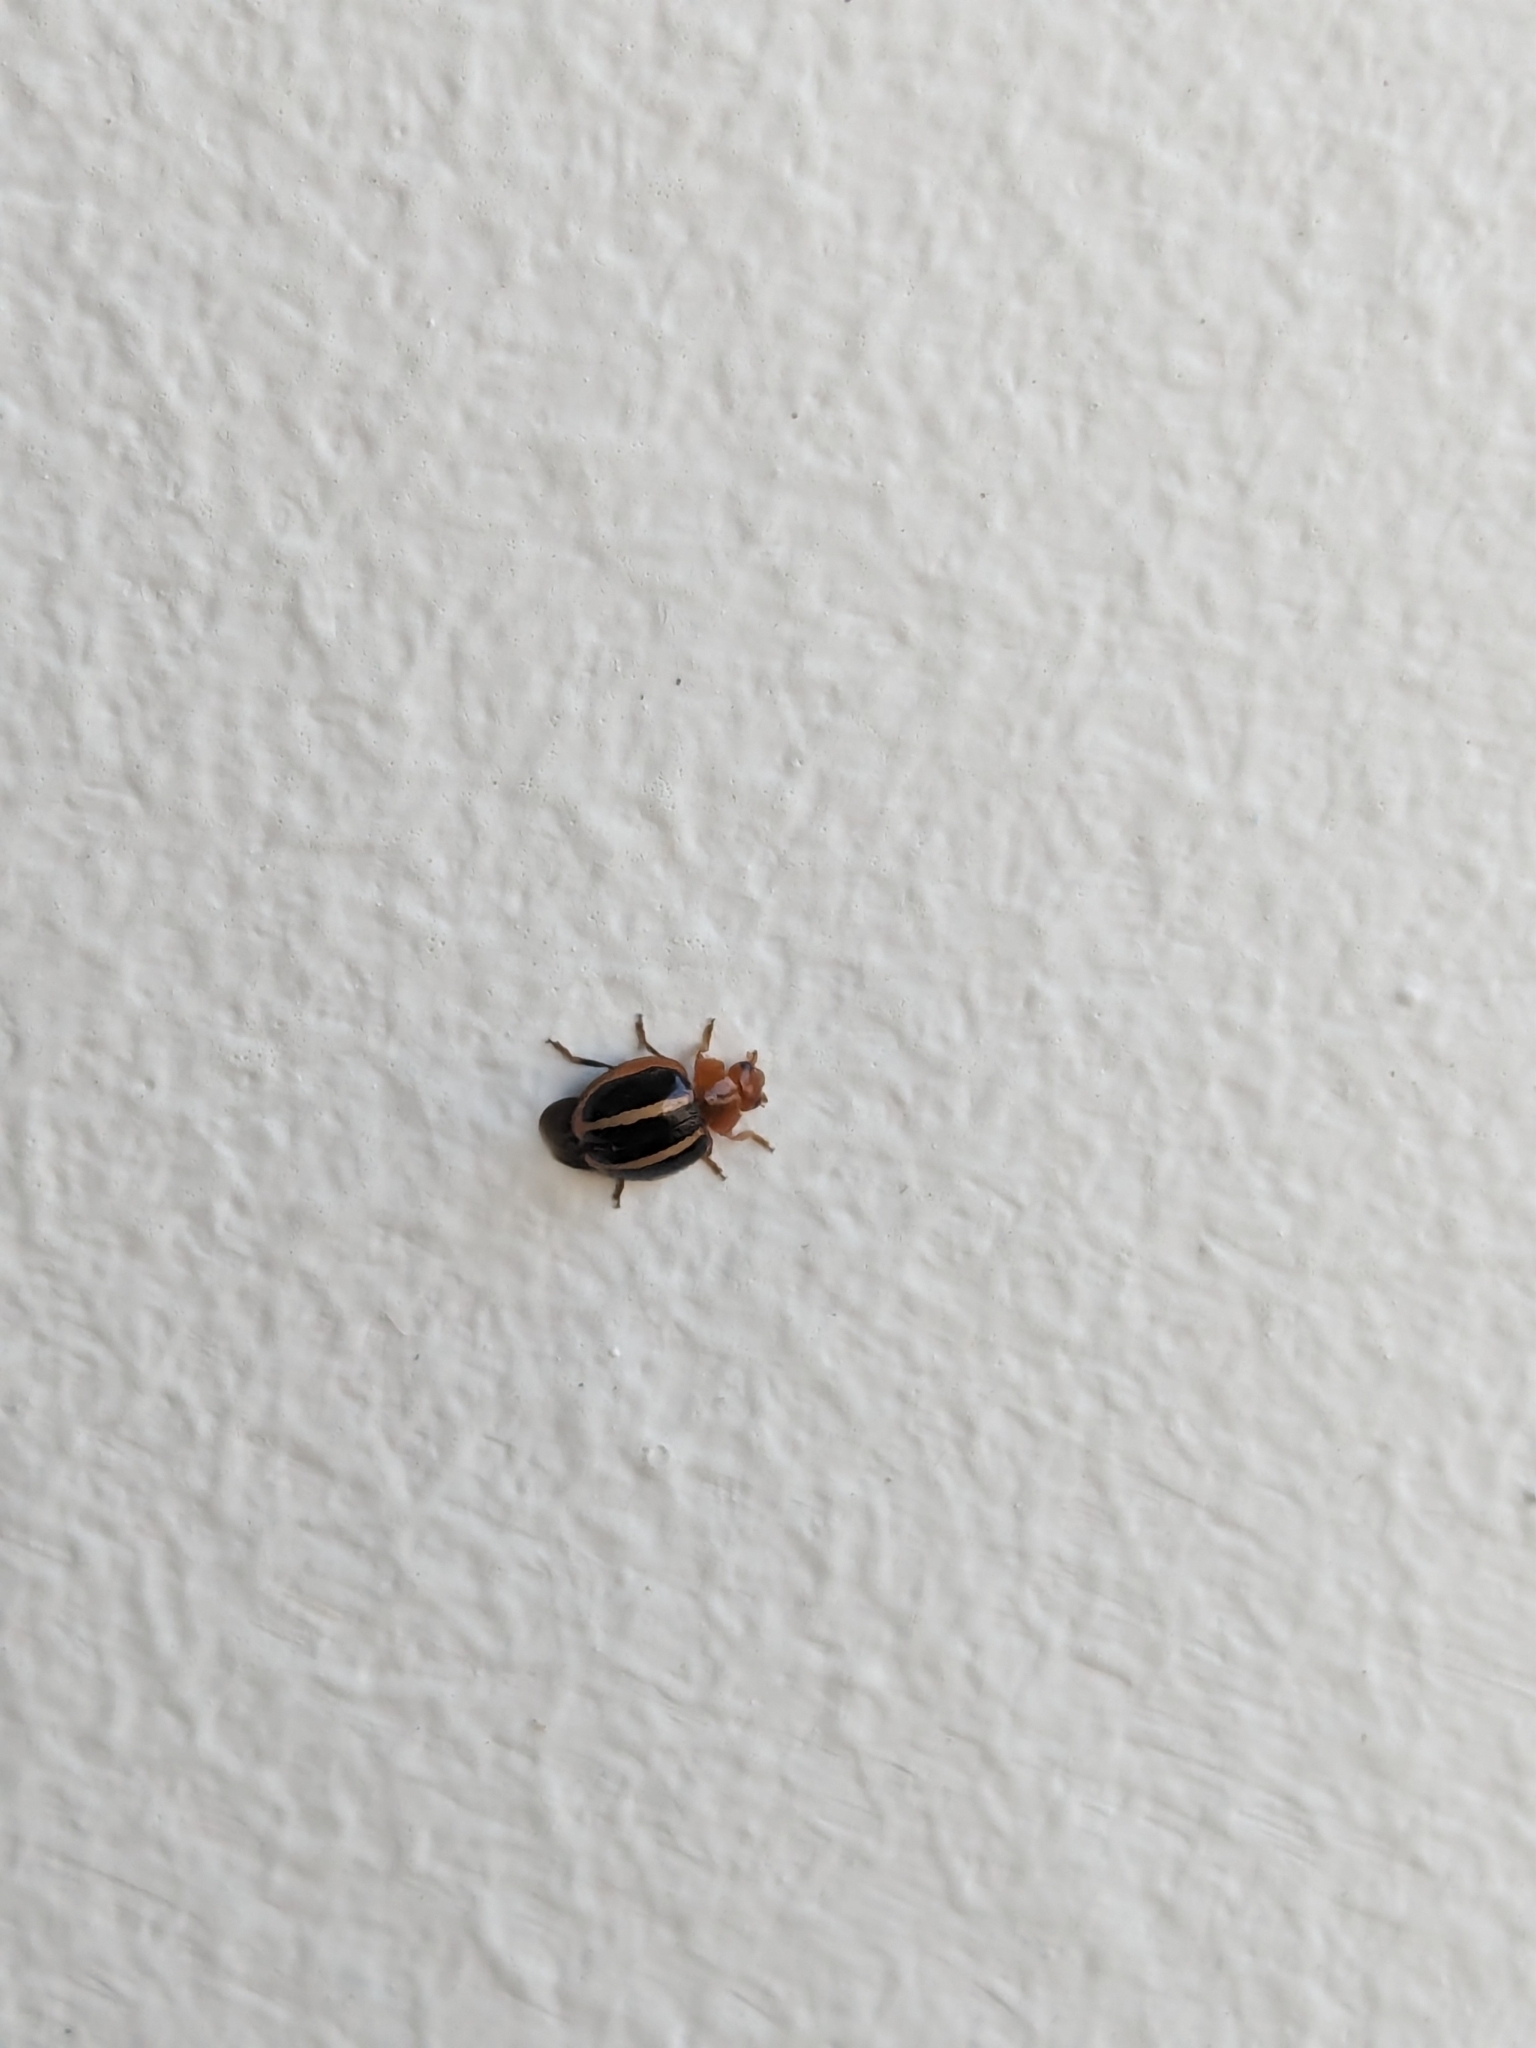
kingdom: Animalia
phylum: Arthropoda
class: Insecta
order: Coleoptera
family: Coccinellidae
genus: Brumoides
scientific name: Brumoides suturalis
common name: Threestriped lady beetle
